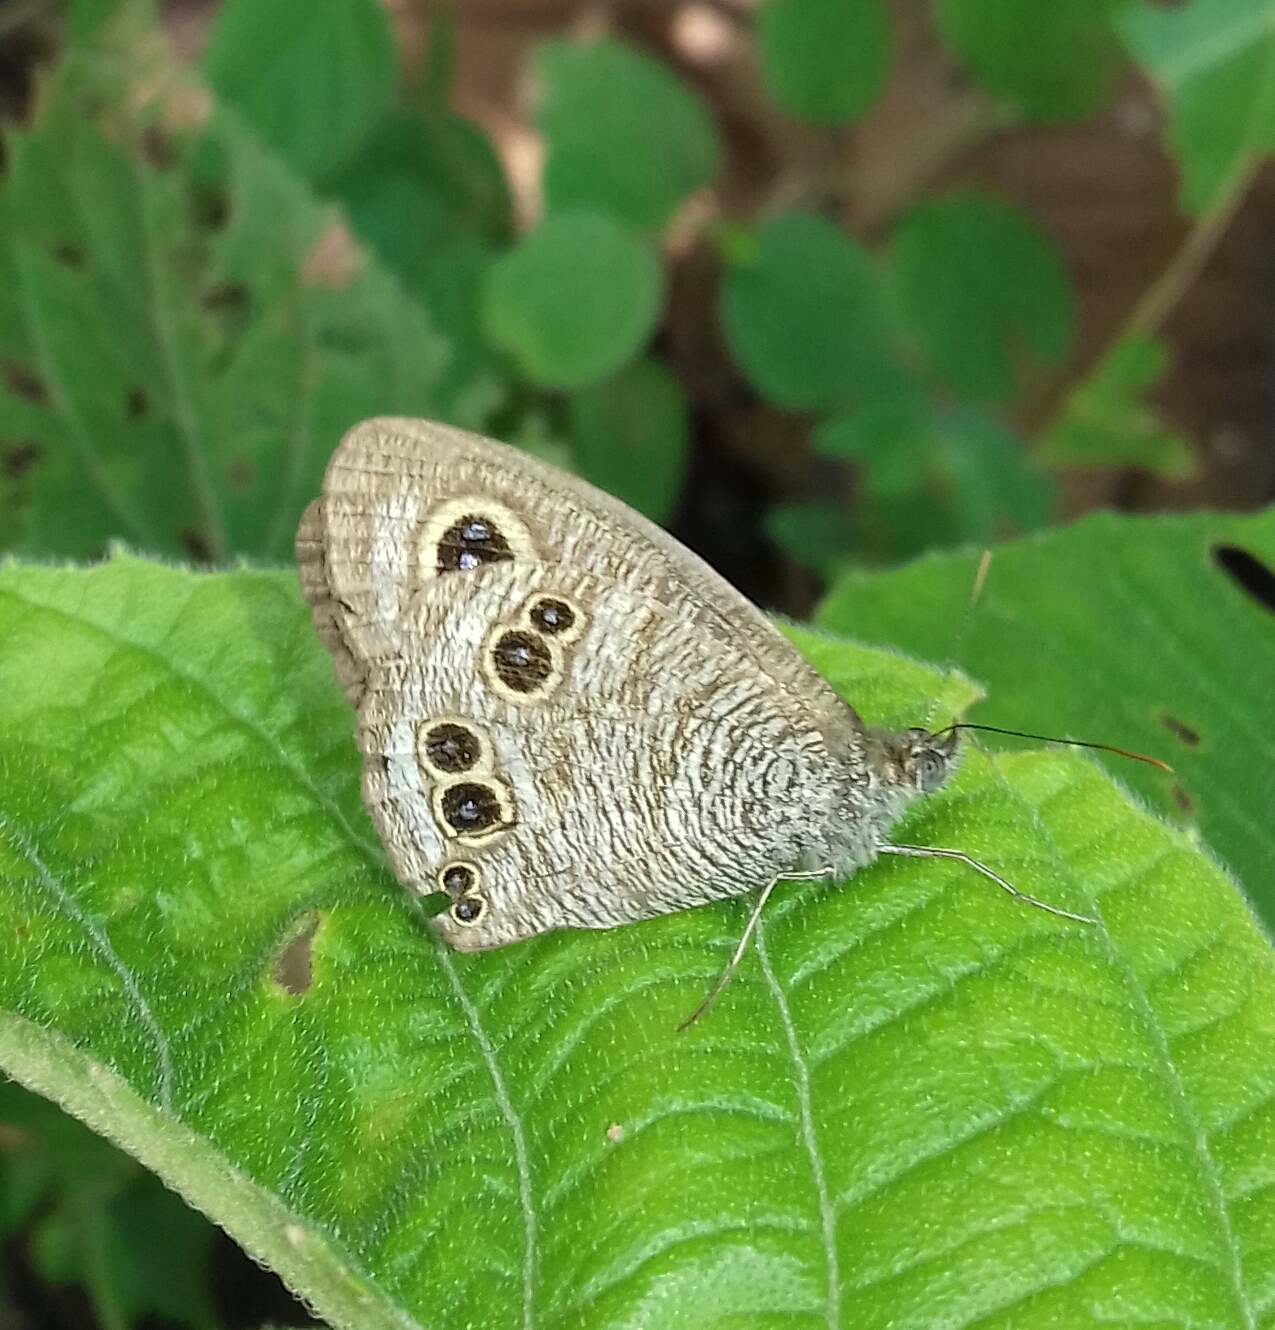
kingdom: Animalia
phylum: Arthropoda
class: Insecta
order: Lepidoptera
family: Nymphalidae
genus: Ypthima
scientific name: Ypthima baldus
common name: Common five-ring
